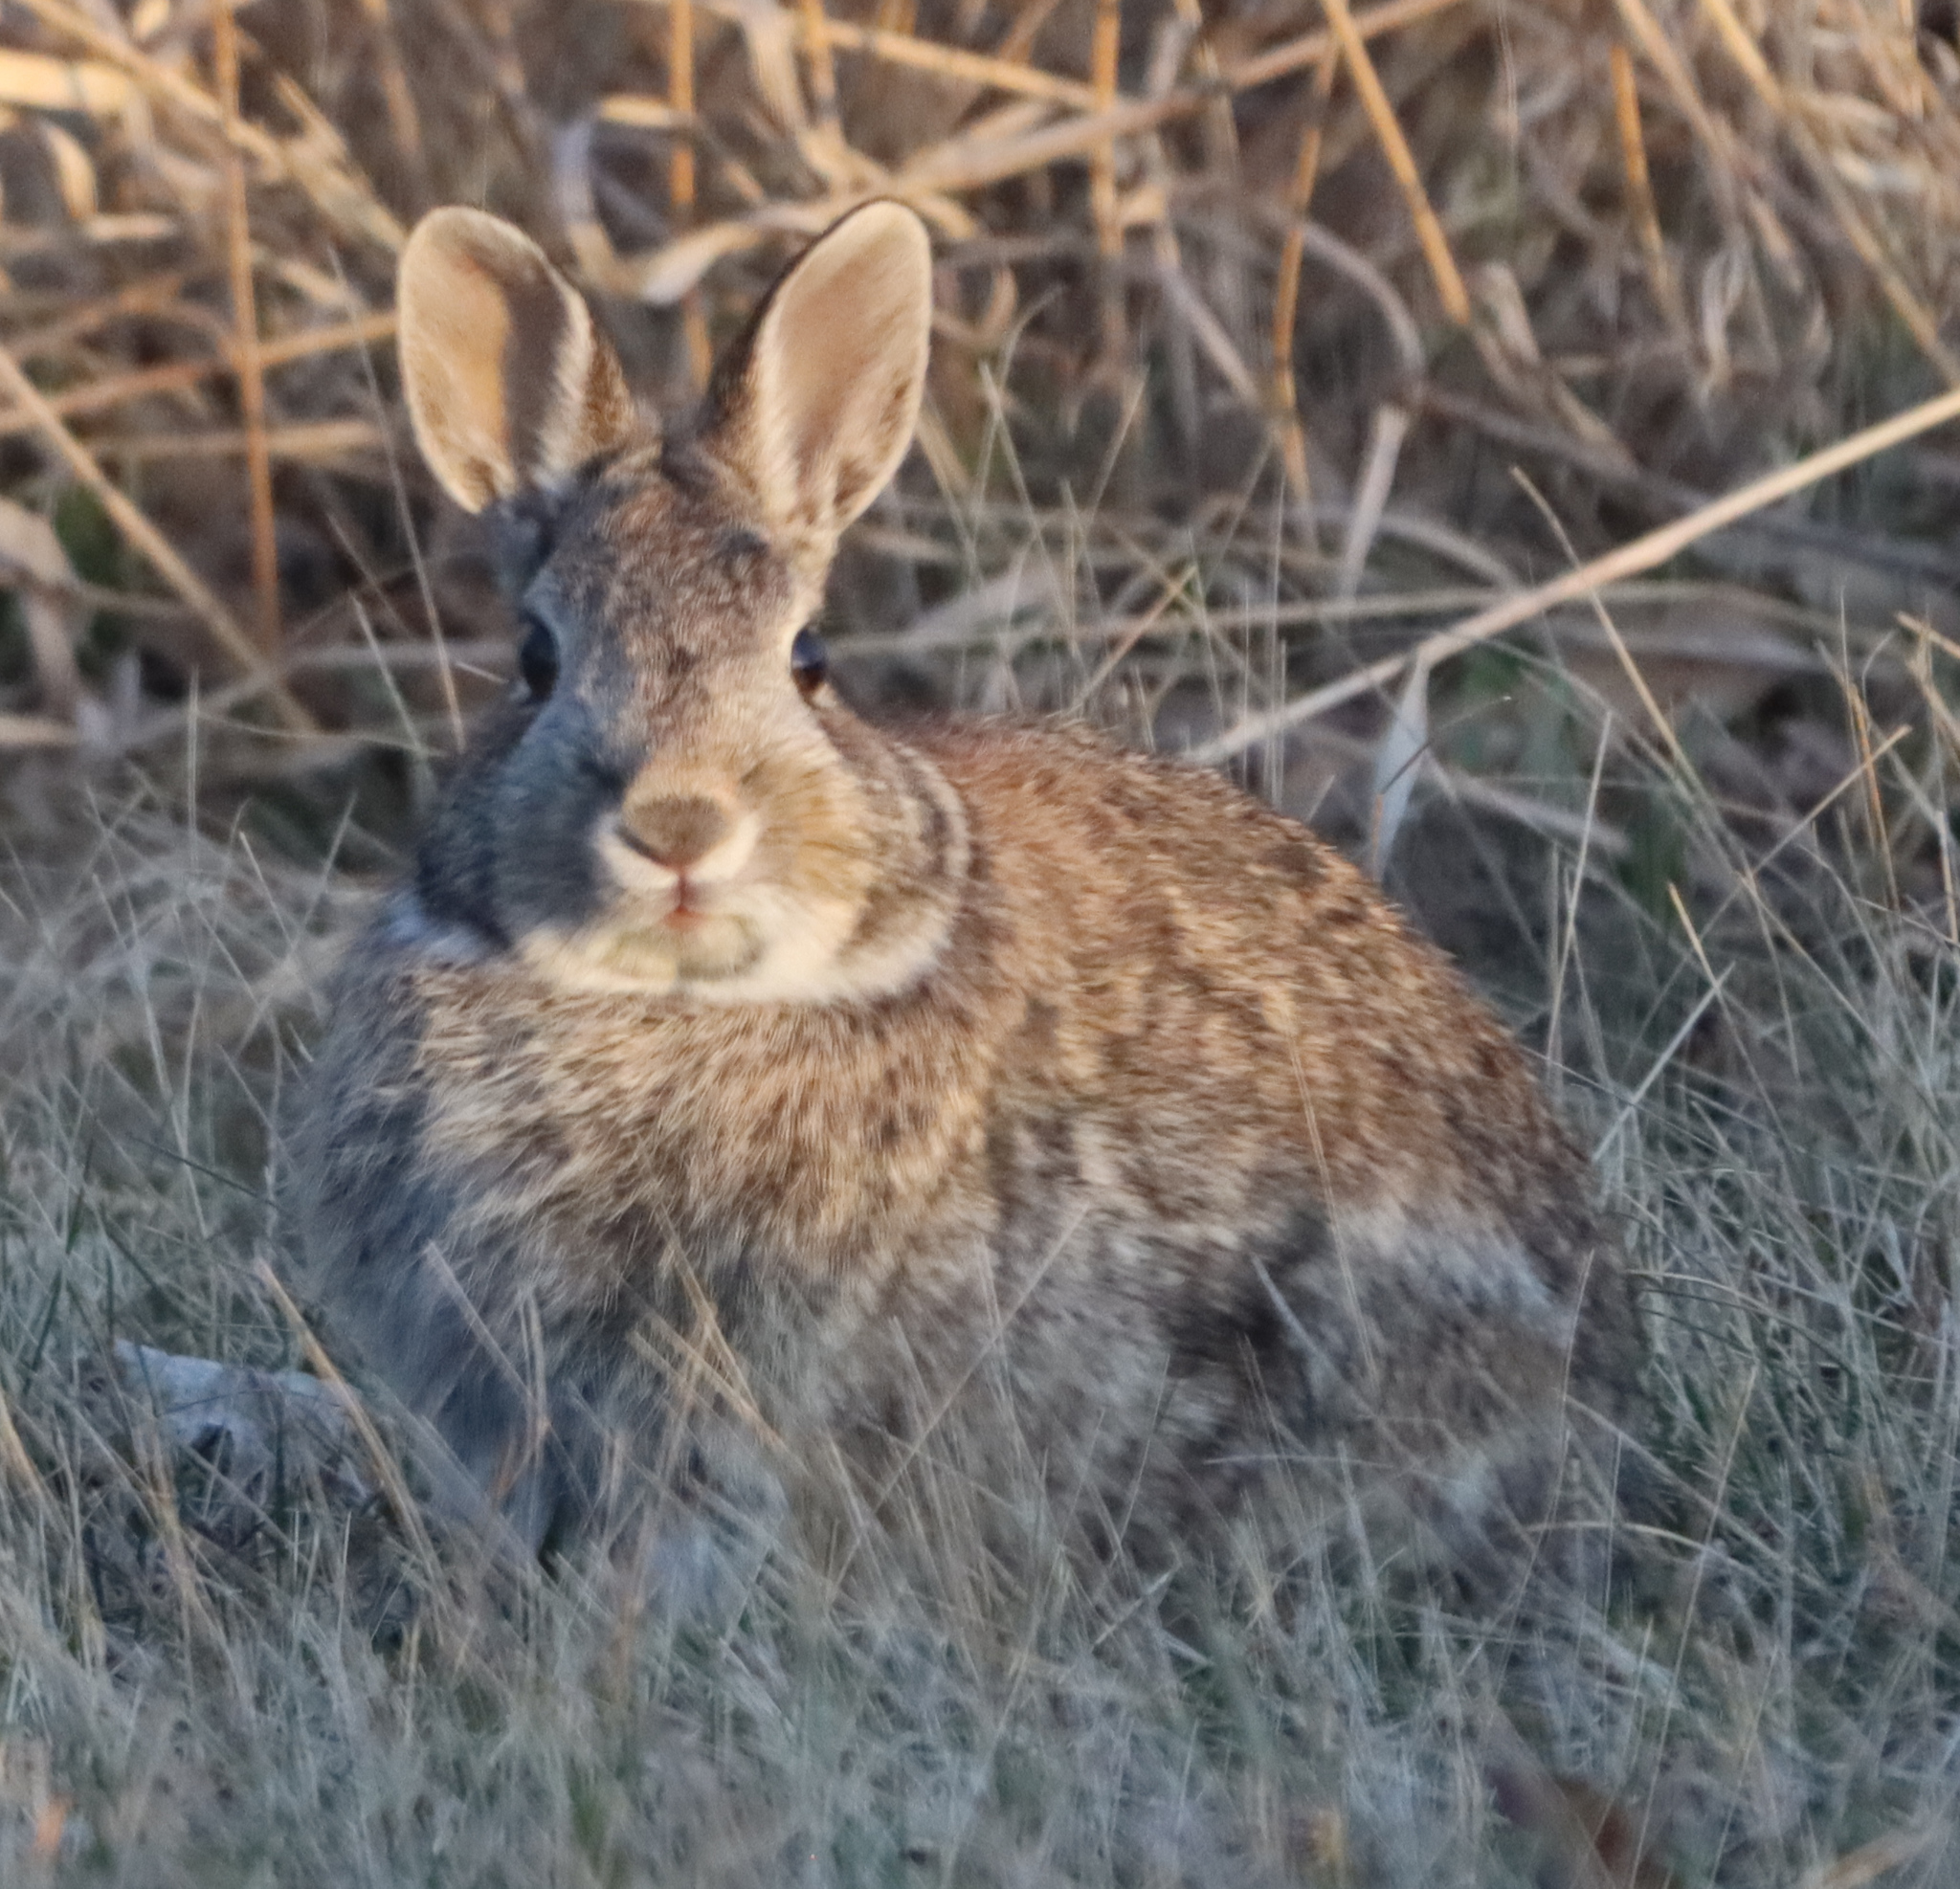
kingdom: Animalia
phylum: Chordata
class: Mammalia
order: Lagomorpha
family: Leporidae
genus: Sylvilagus
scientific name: Sylvilagus floridanus
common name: Eastern cottontail
